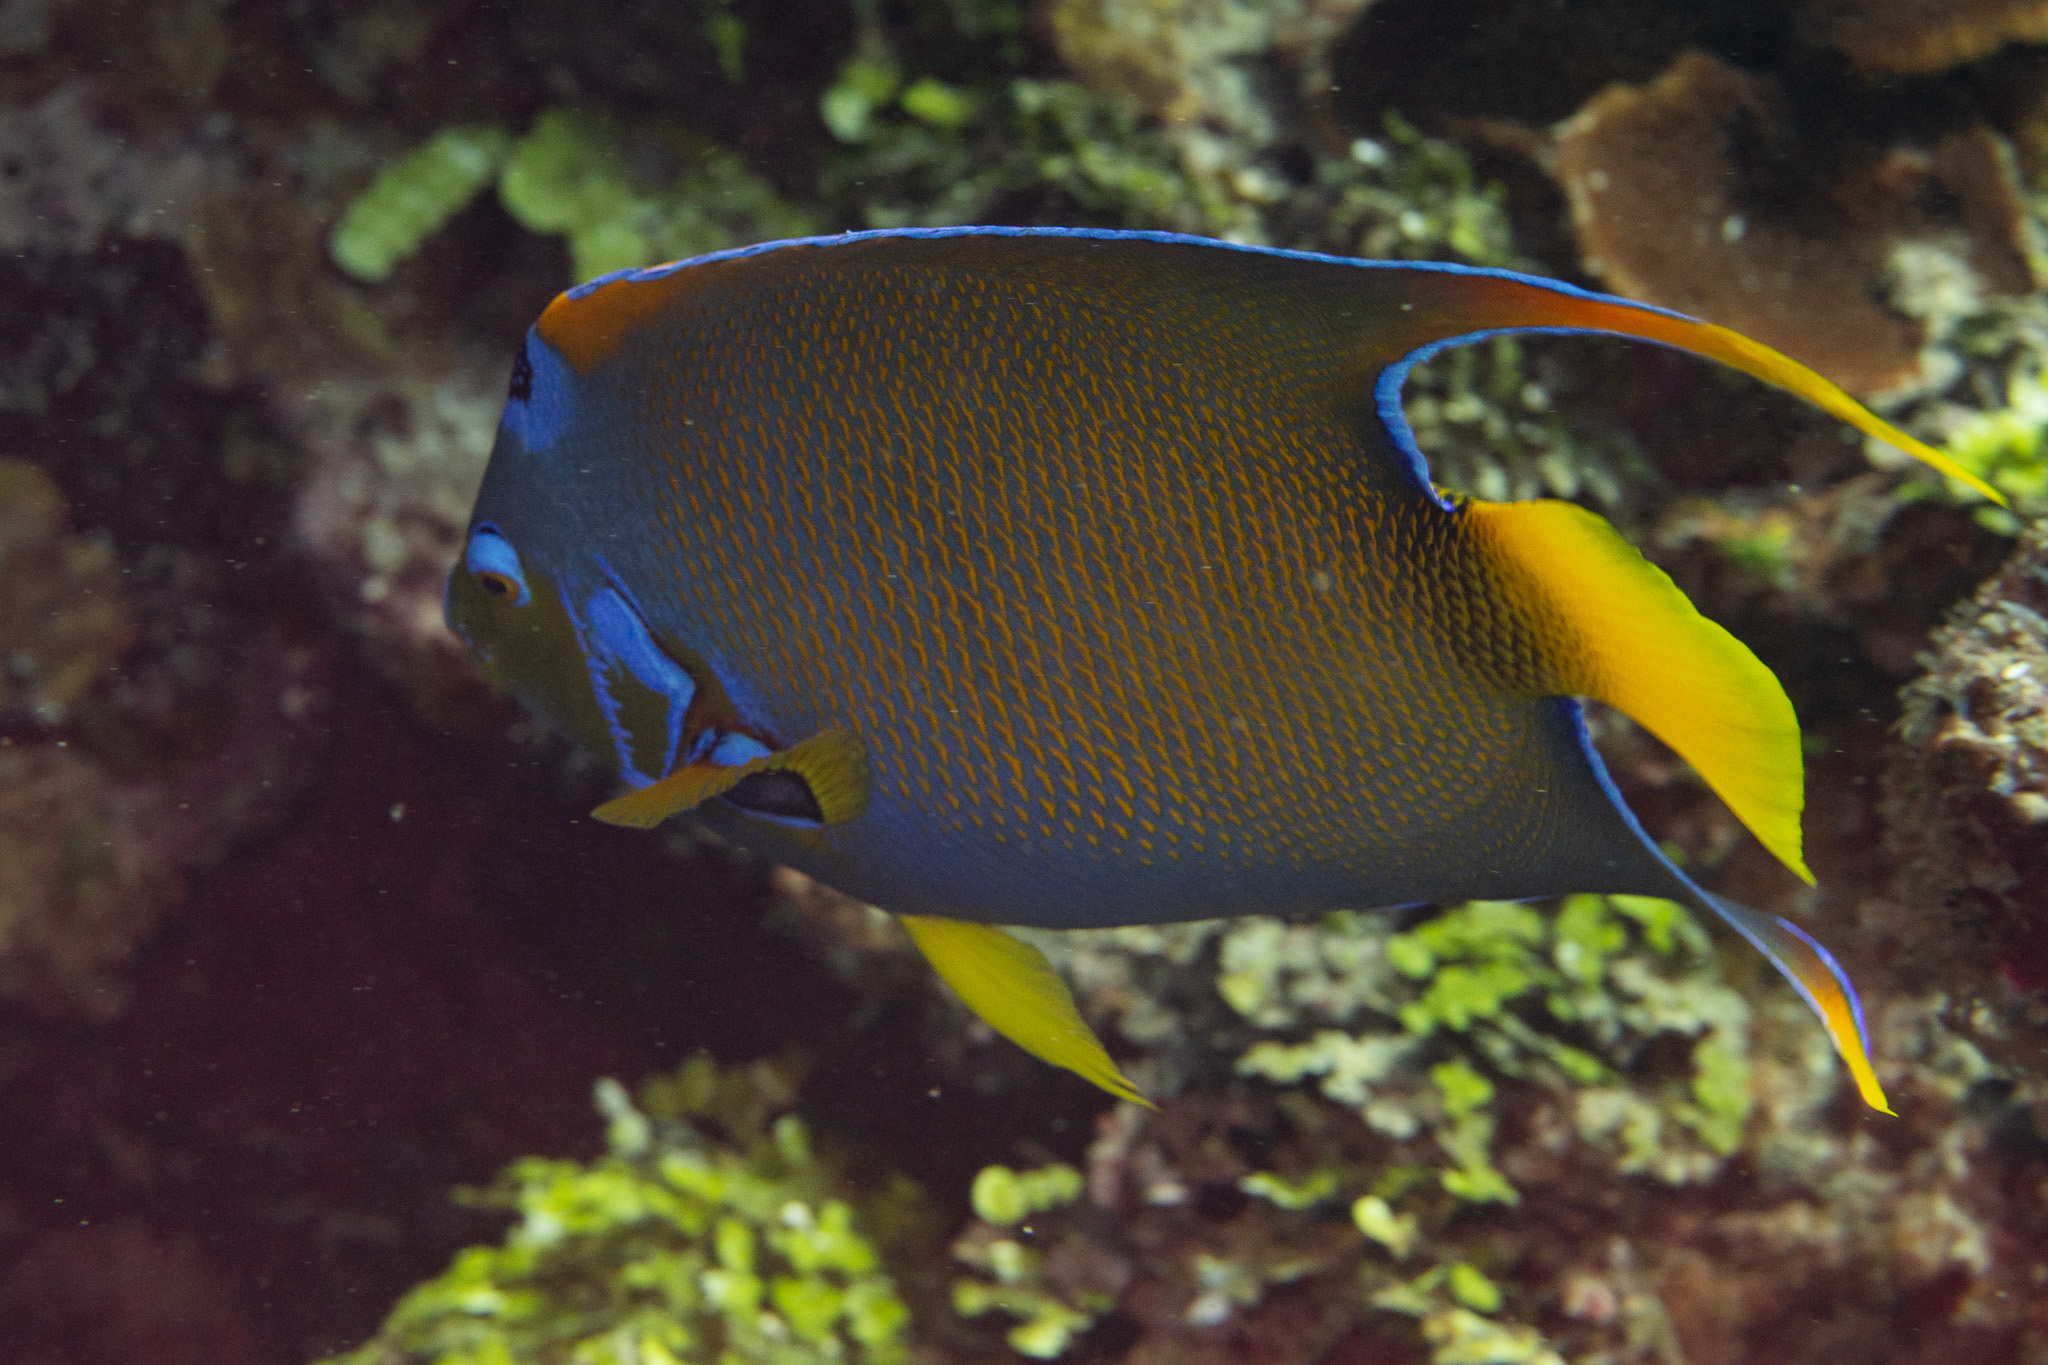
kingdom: Animalia
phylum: Chordata
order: Perciformes
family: Pomacanthidae
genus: Holacanthus
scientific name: Holacanthus ciliaris
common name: Queen angelfish
